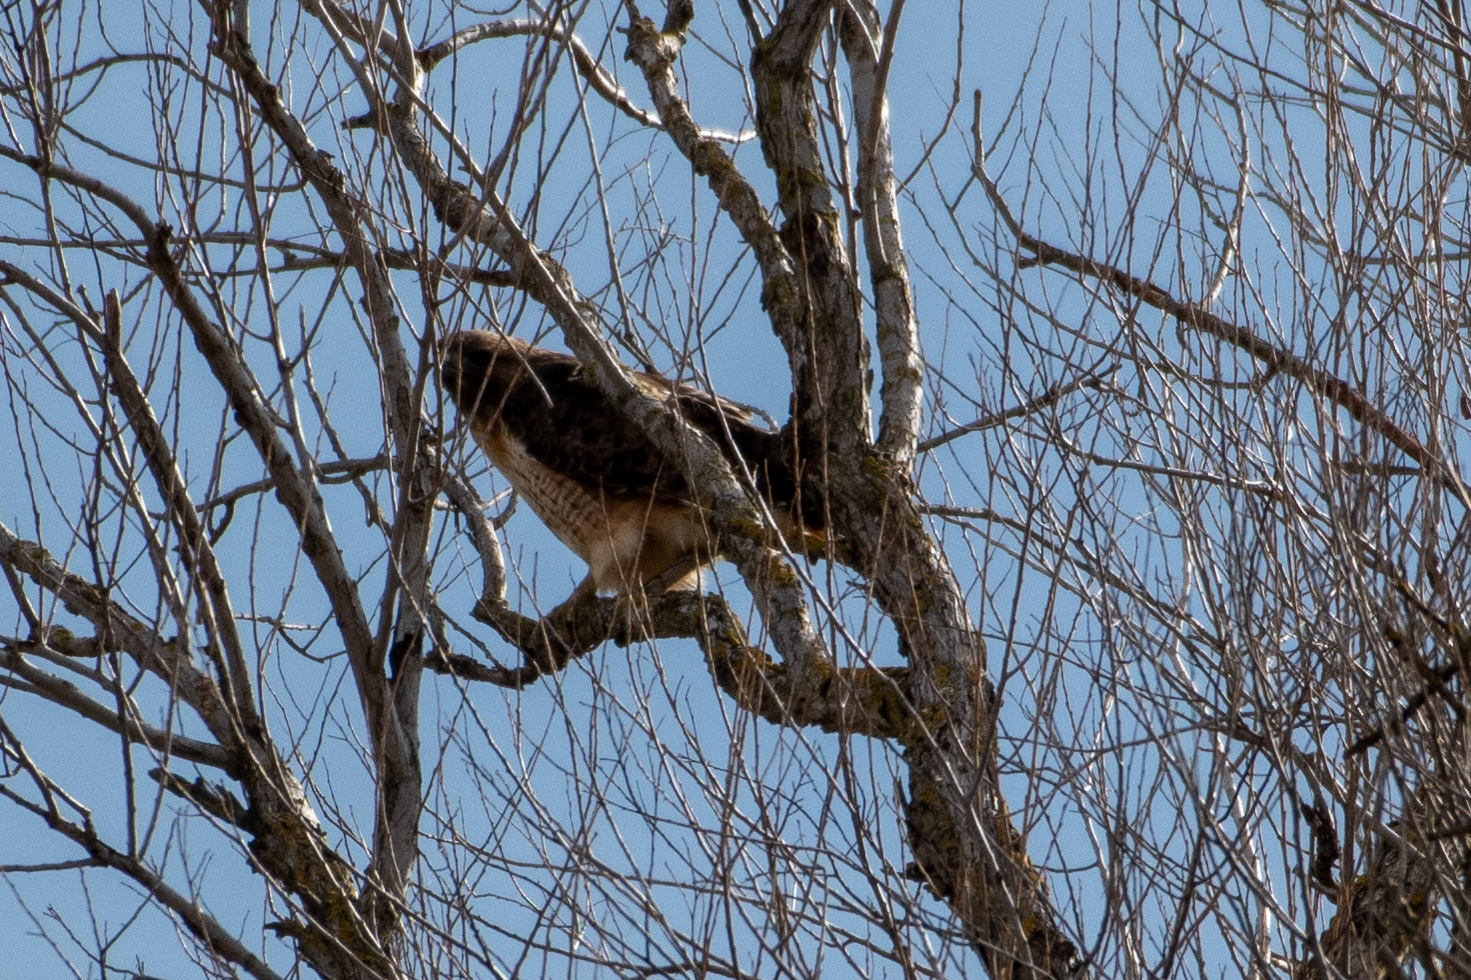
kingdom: Animalia
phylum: Chordata
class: Aves
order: Accipitriformes
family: Accipitridae
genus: Buteo
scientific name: Buteo jamaicensis
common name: Red-tailed hawk
